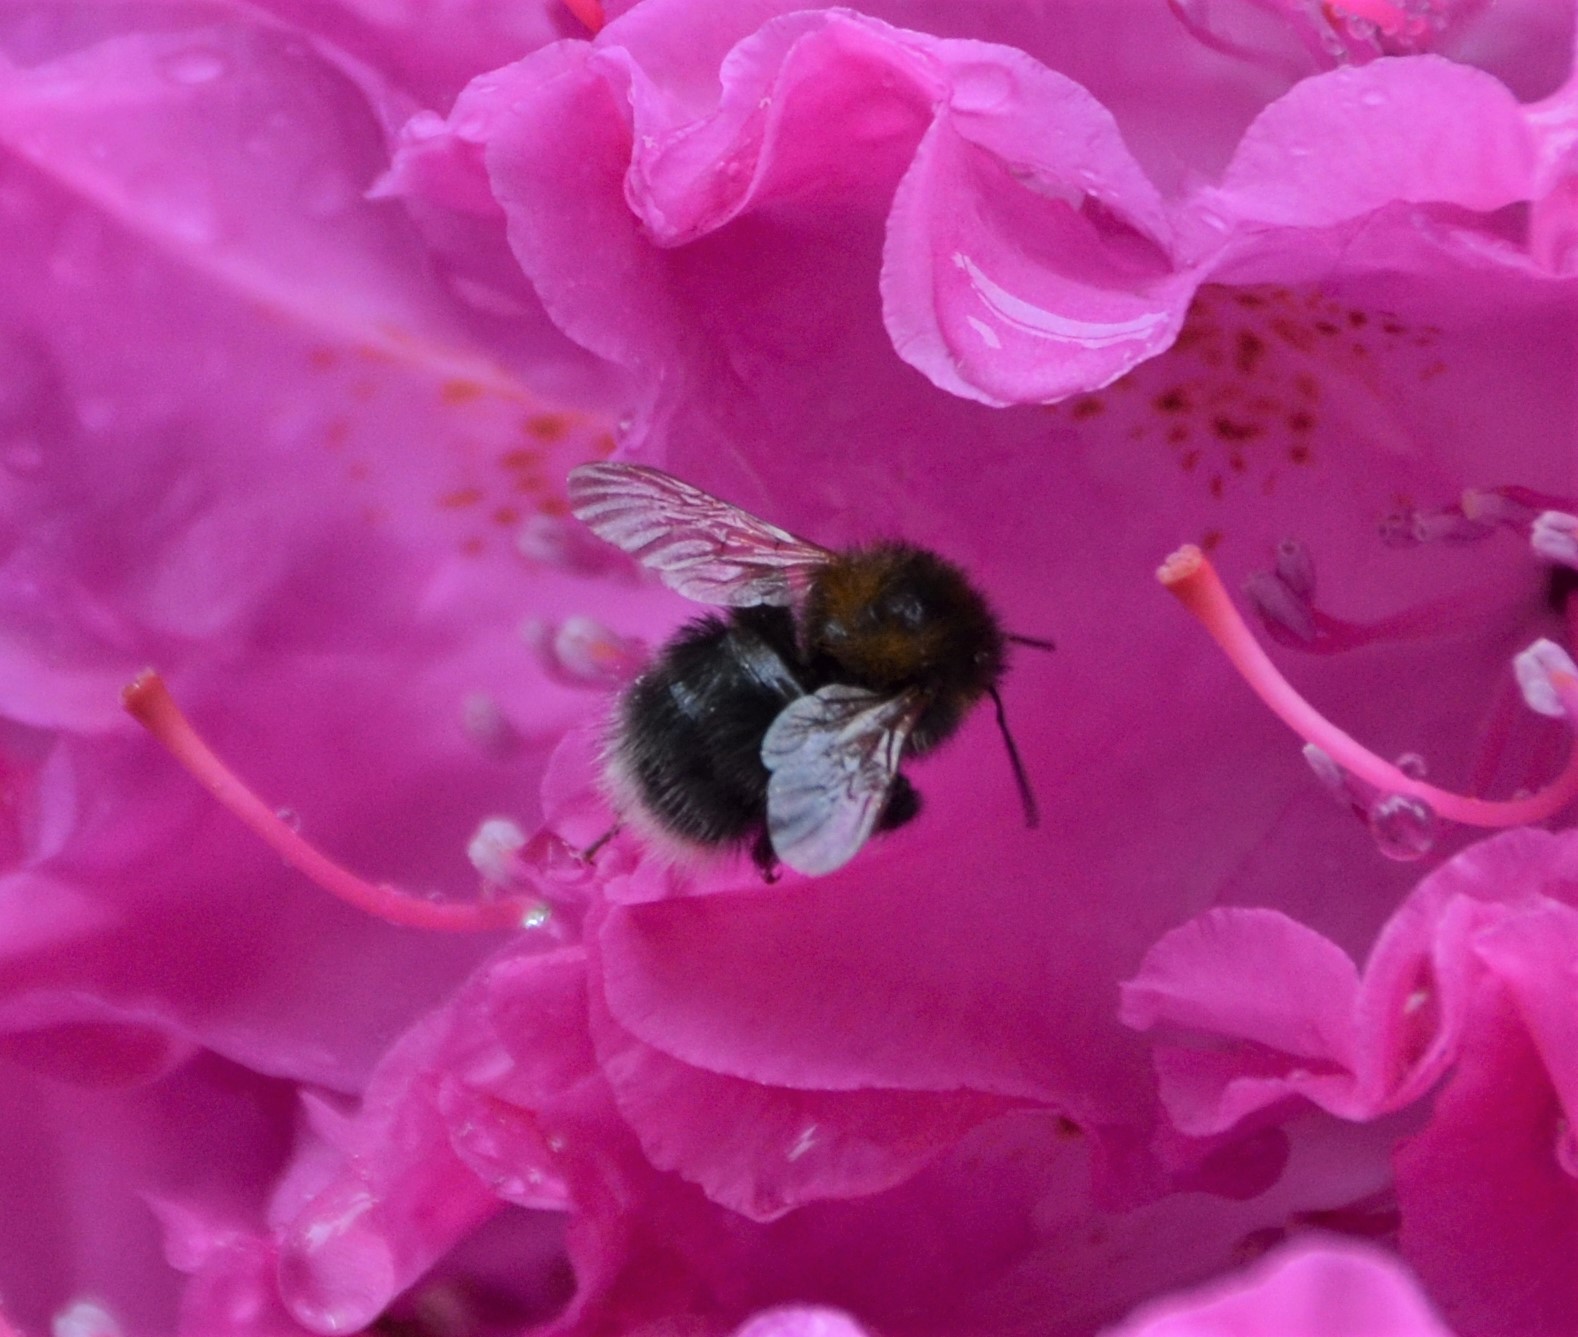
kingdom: Animalia
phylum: Arthropoda
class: Insecta
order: Hymenoptera
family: Apidae
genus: Bombus
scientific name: Bombus hypnorum
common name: New garden bumblebee
